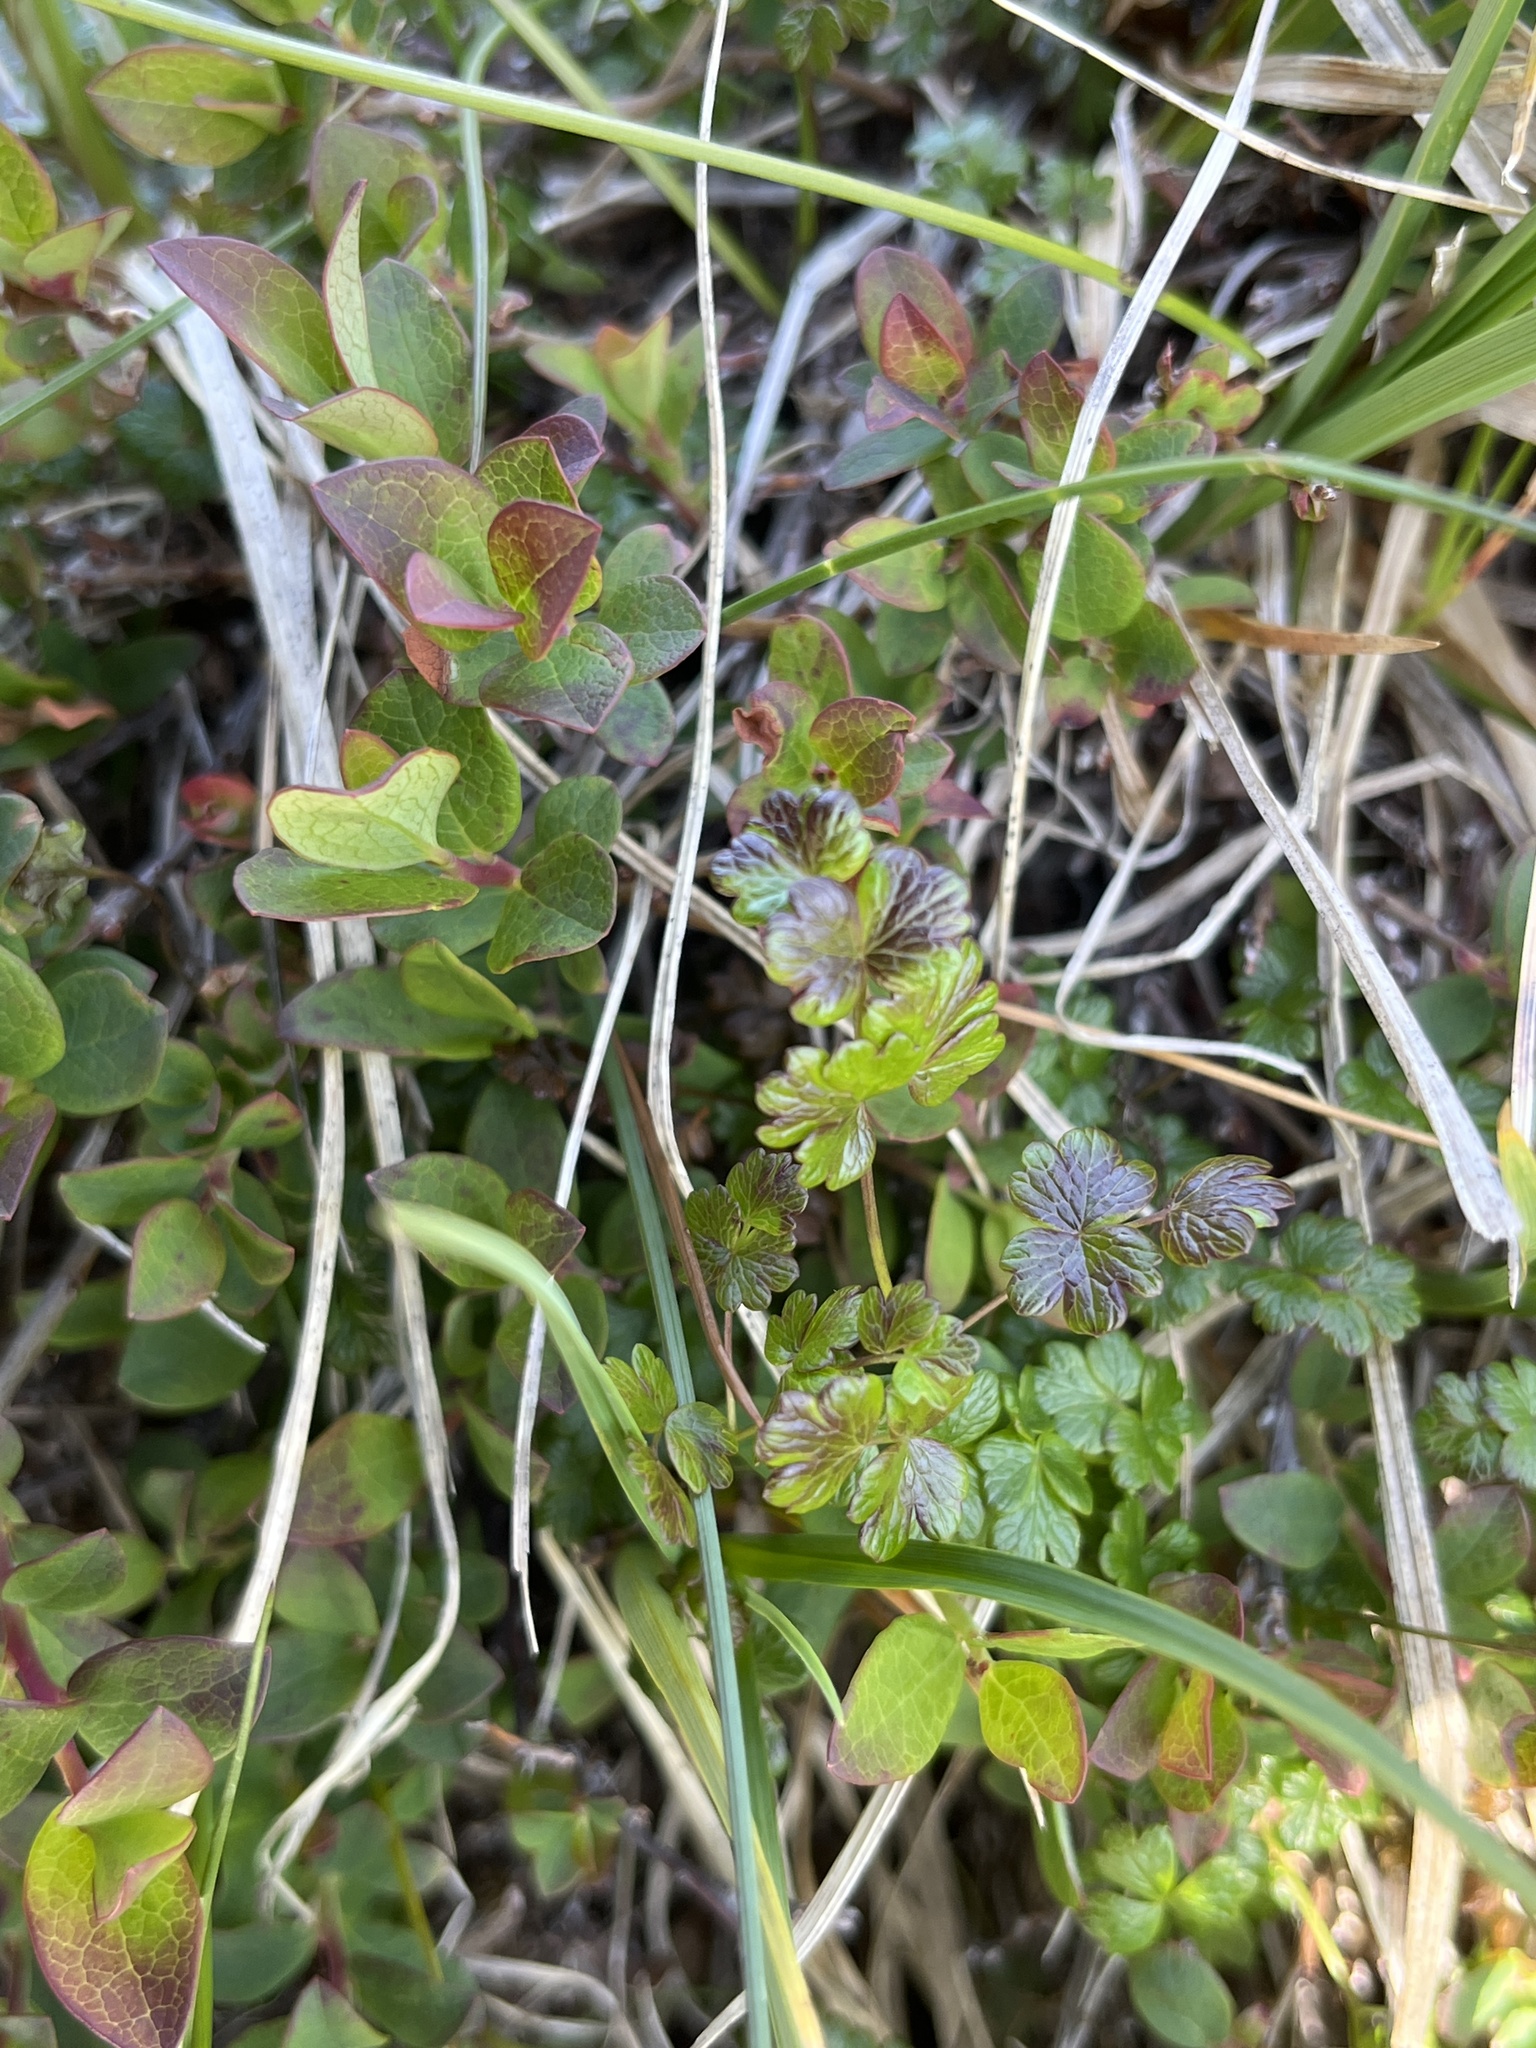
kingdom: Plantae
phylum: Tracheophyta
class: Magnoliopsida
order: Ranunculales
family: Ranunculaceae
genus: Thalictrum
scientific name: Thalictrum alpinum
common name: Alpine meadow-rue
